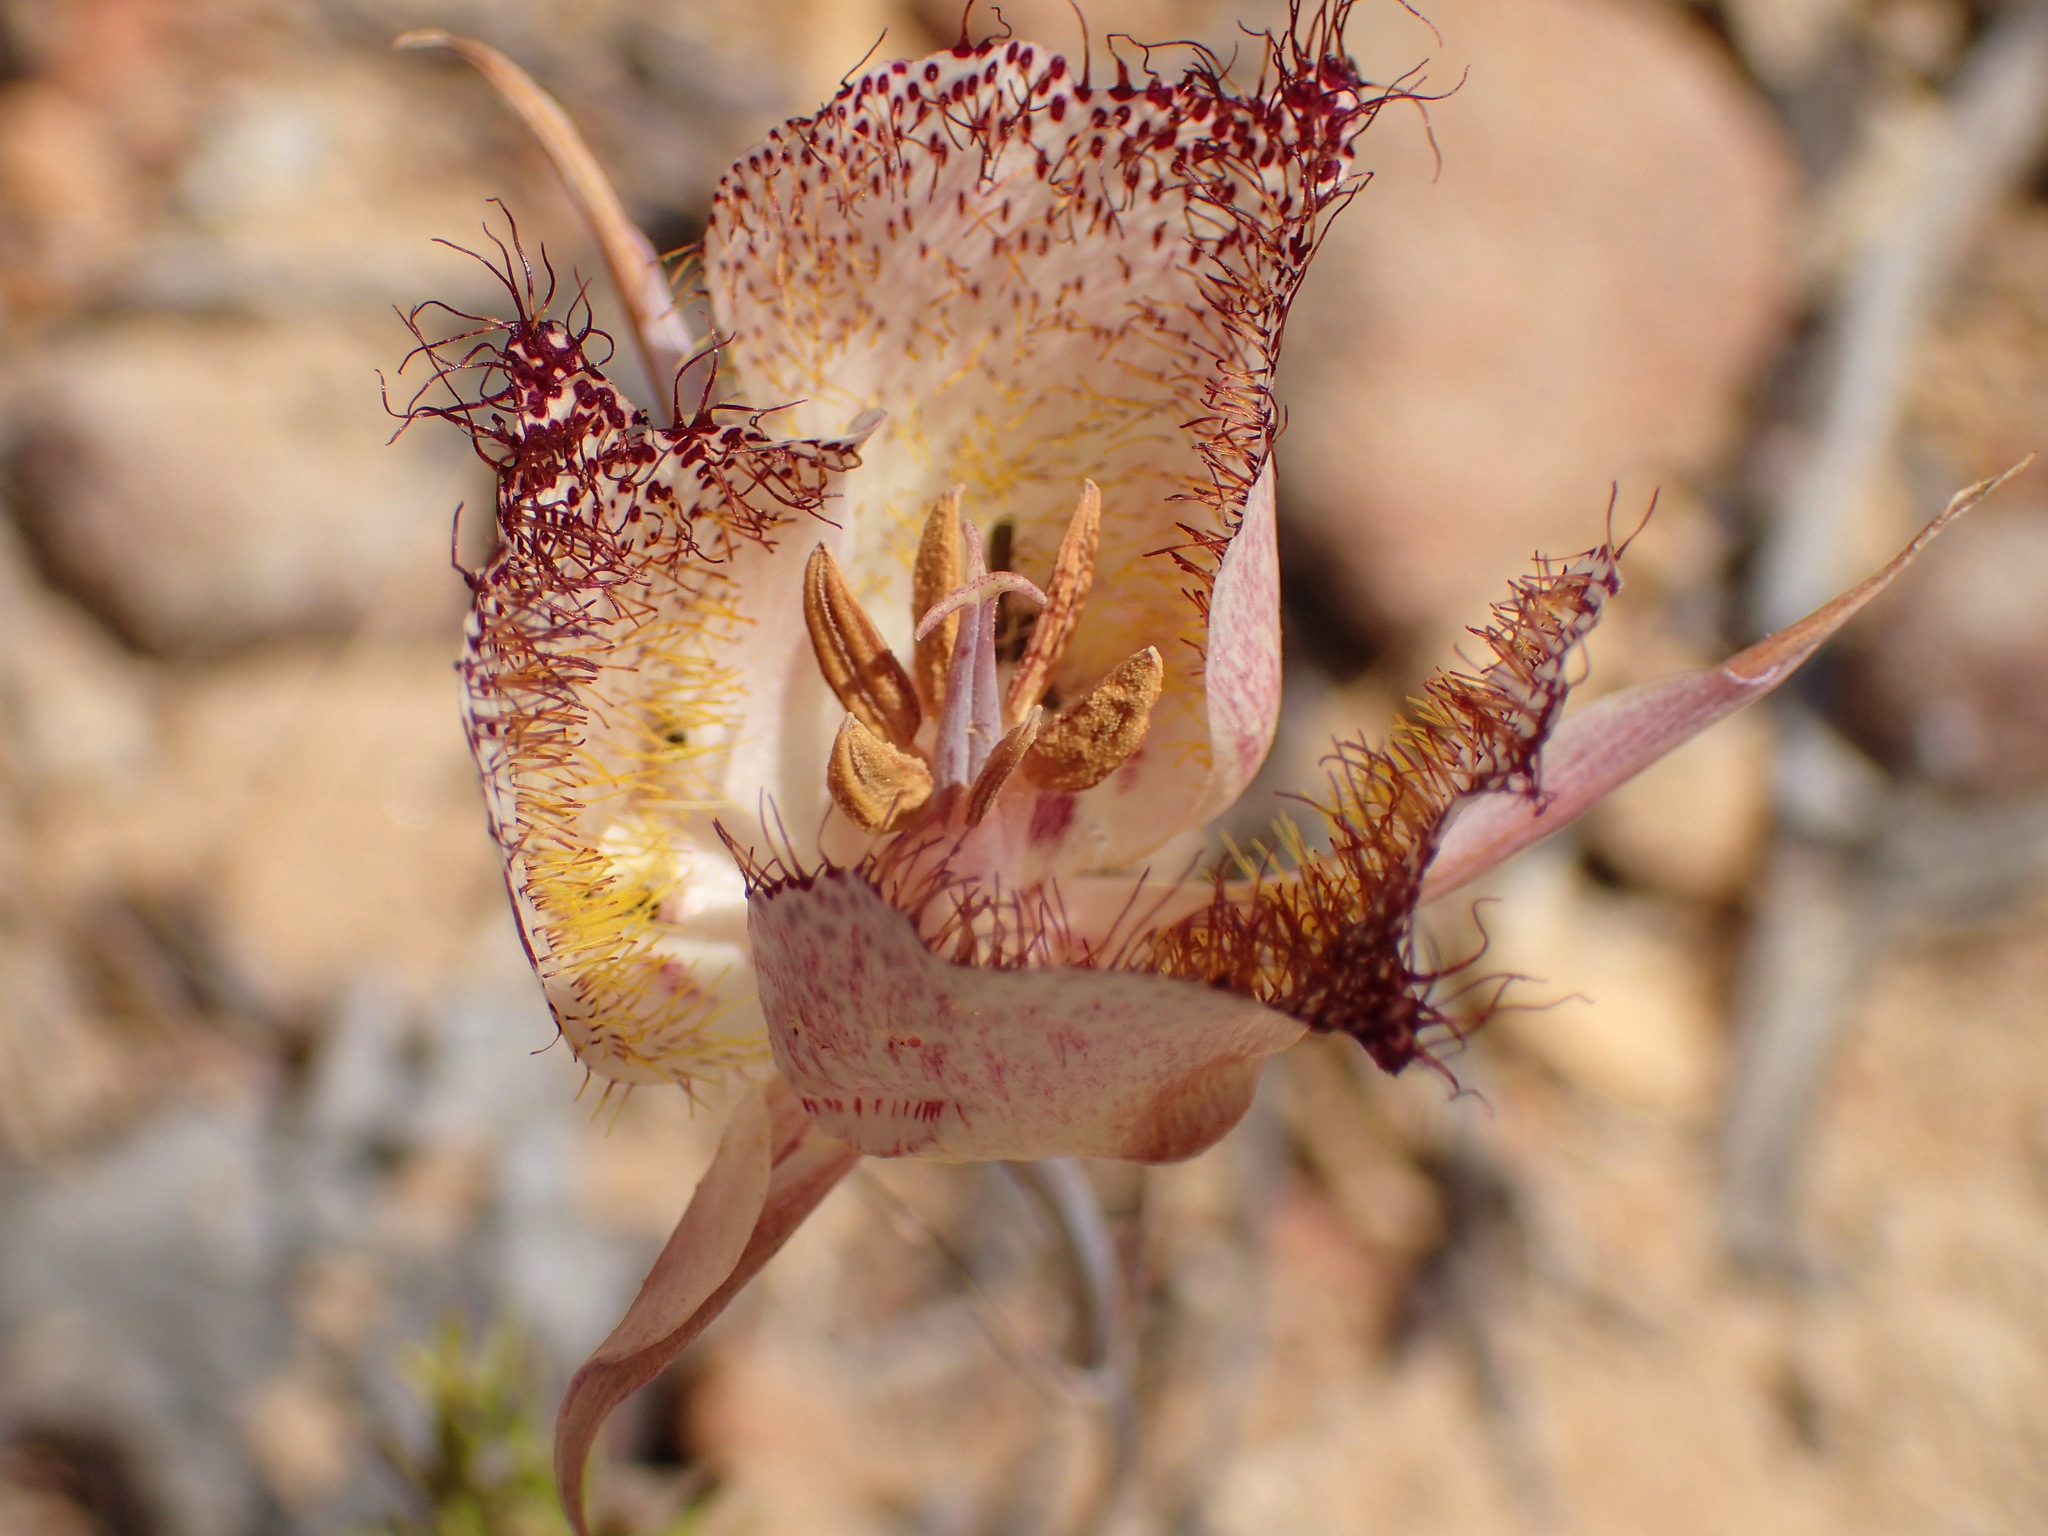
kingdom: Plantae
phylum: Tracheophyta
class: Liliopsida
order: Liliales
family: Liliaceae
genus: Calochortus
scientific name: Calochortus fimbriatus
